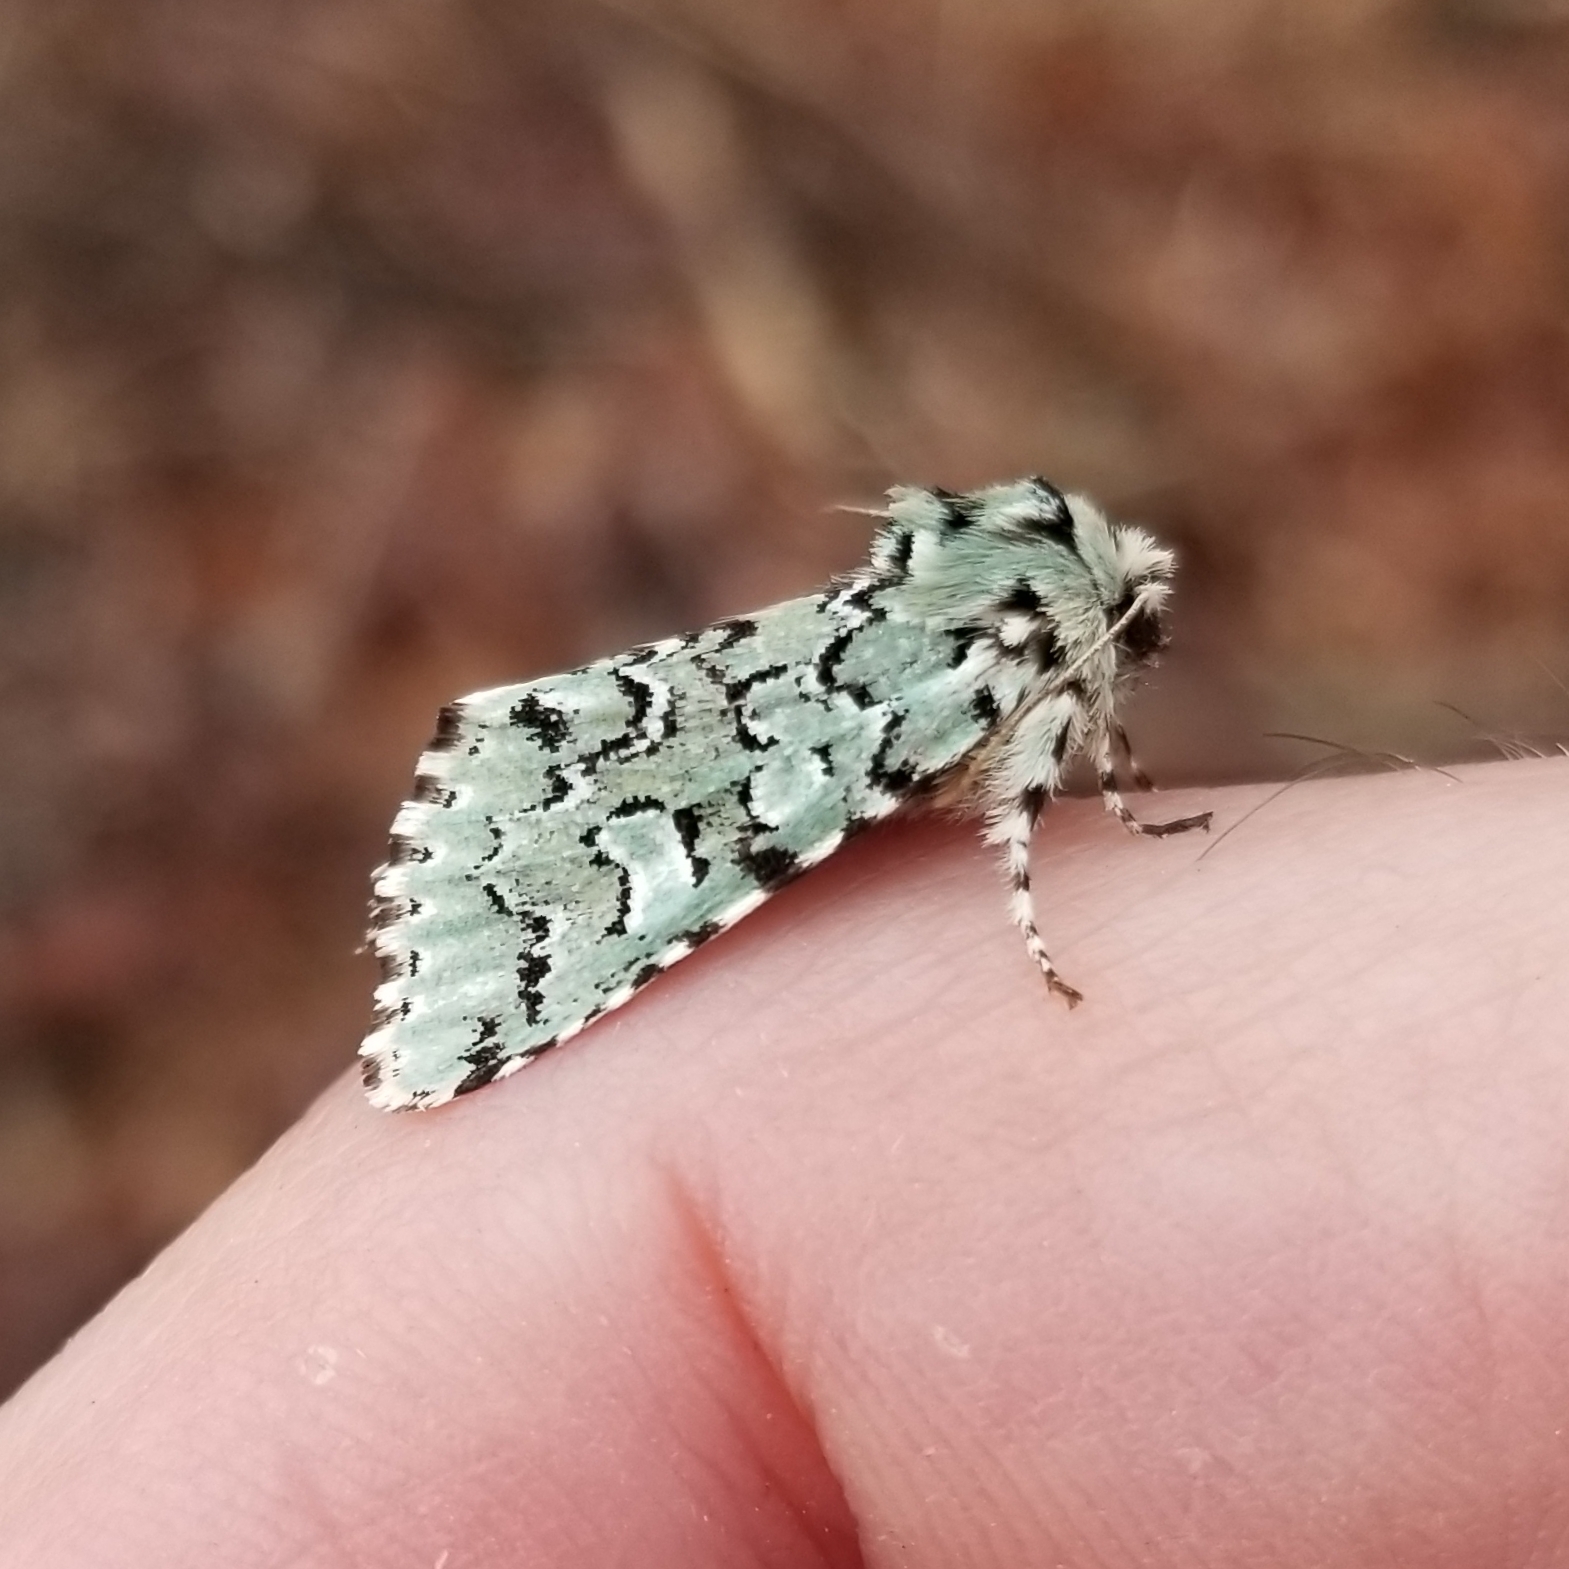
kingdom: Animalia
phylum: Arthropoda
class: Insecta
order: Lepidoptera
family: Noctuidae
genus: Feralia
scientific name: Feralia major
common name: Major sallow
